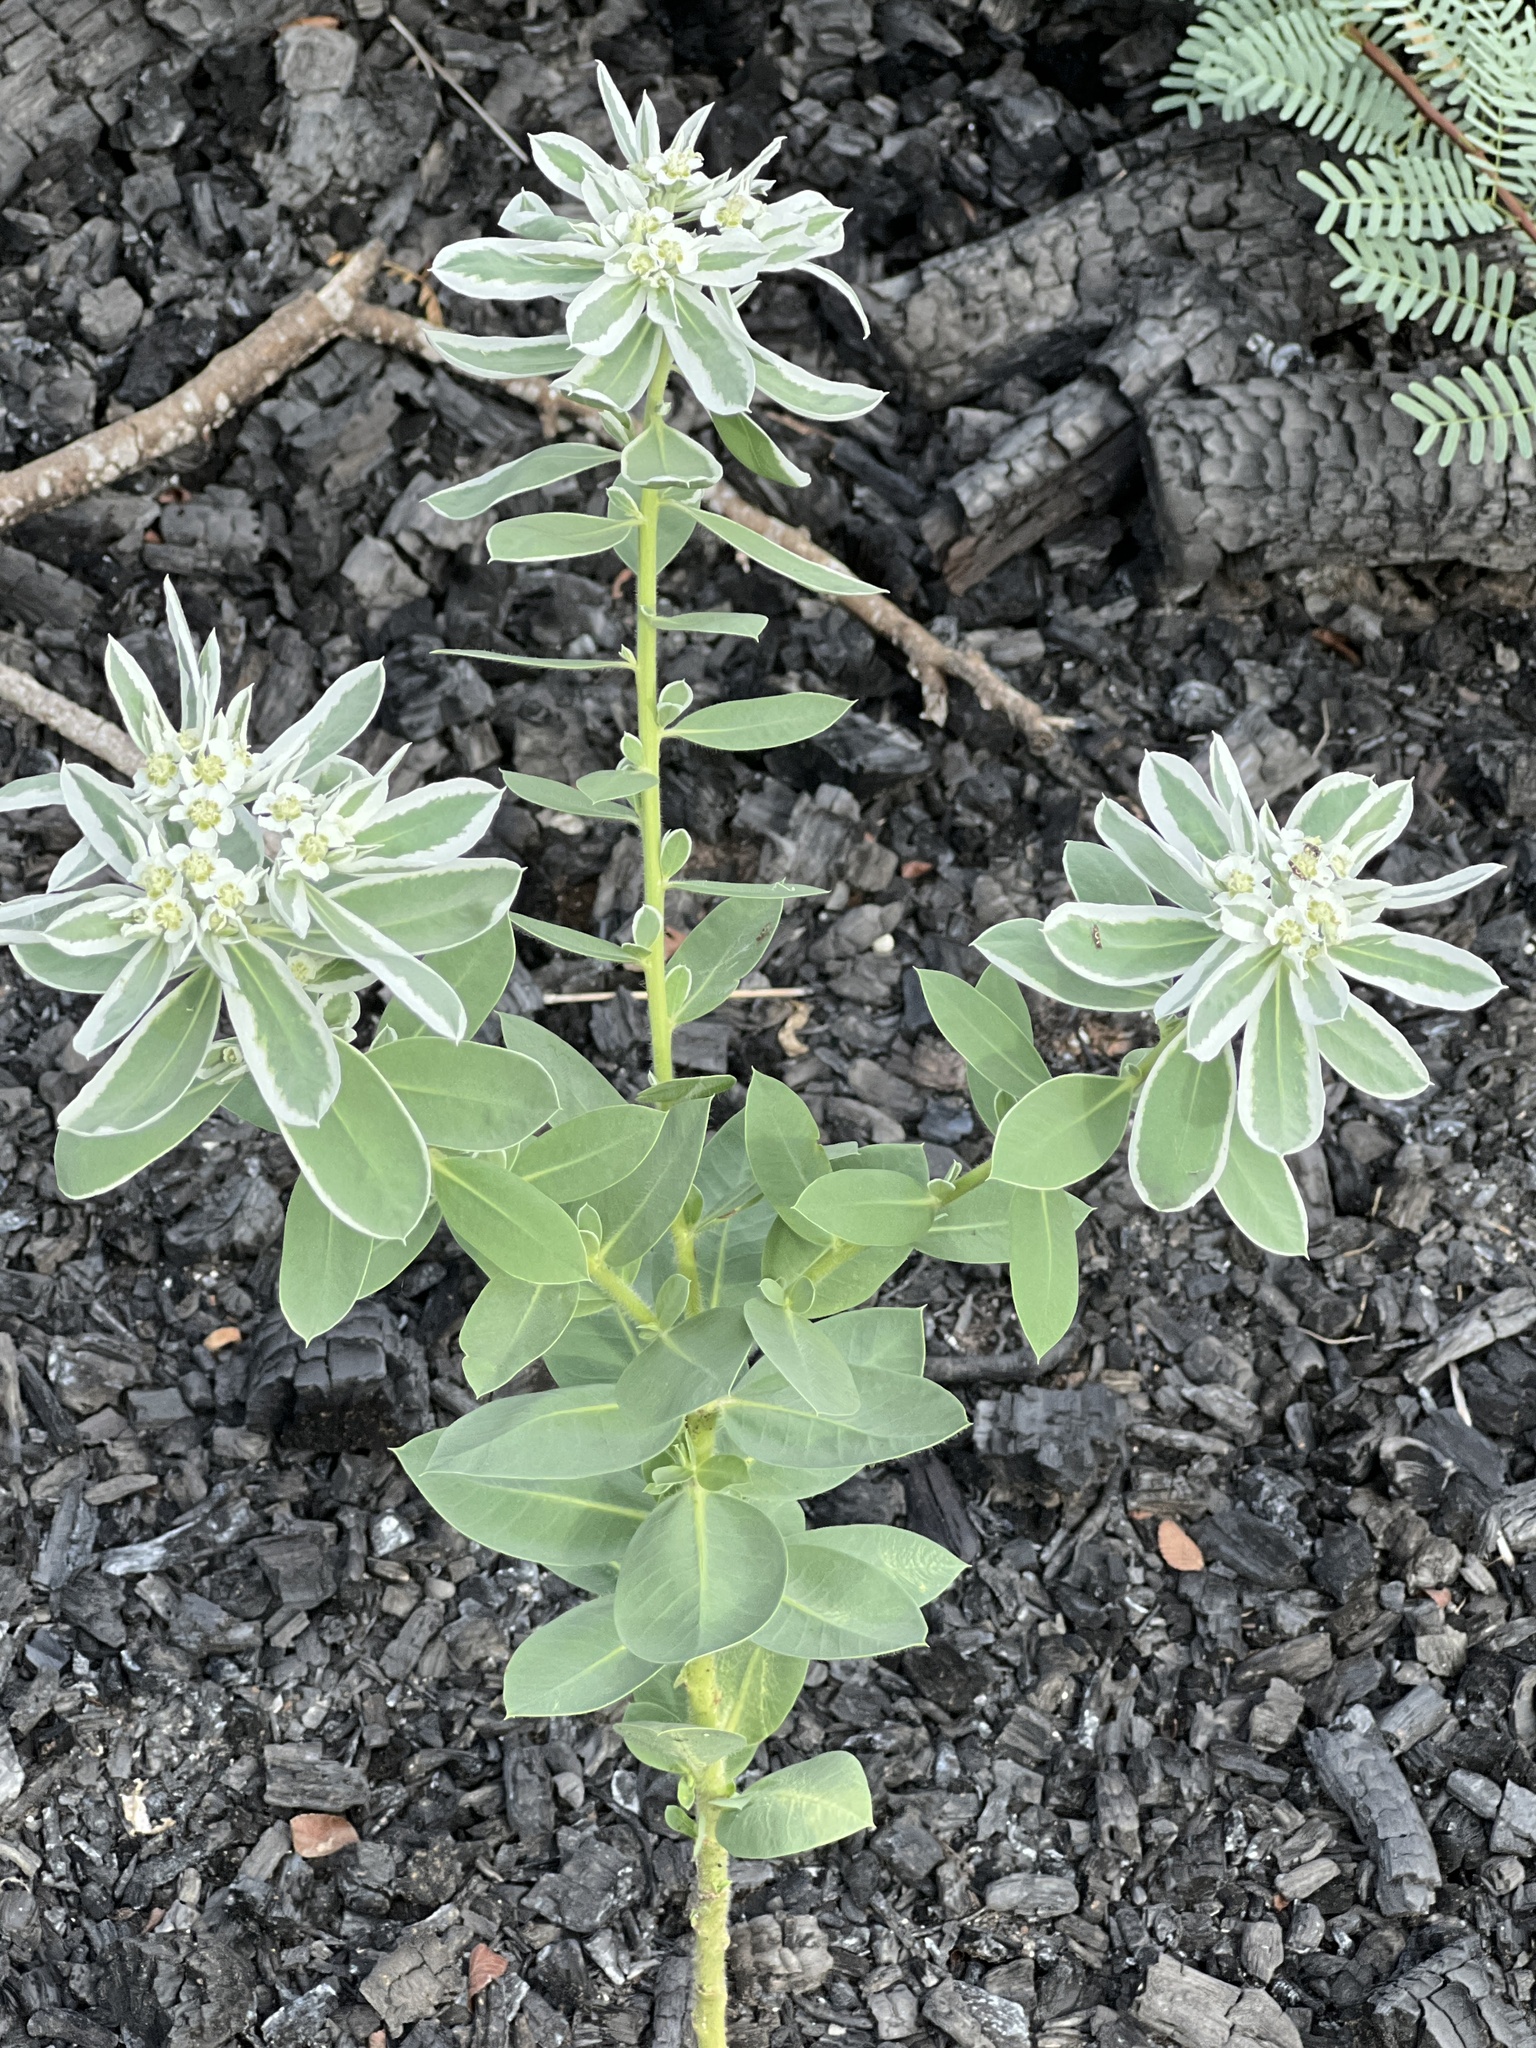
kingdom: Plantae
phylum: Tracheophyta
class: Magnoliopsida
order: Malpighiales
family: Euphorbiaceae
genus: Euphorbia
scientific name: Euphorbia marginata
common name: Ghostweed
